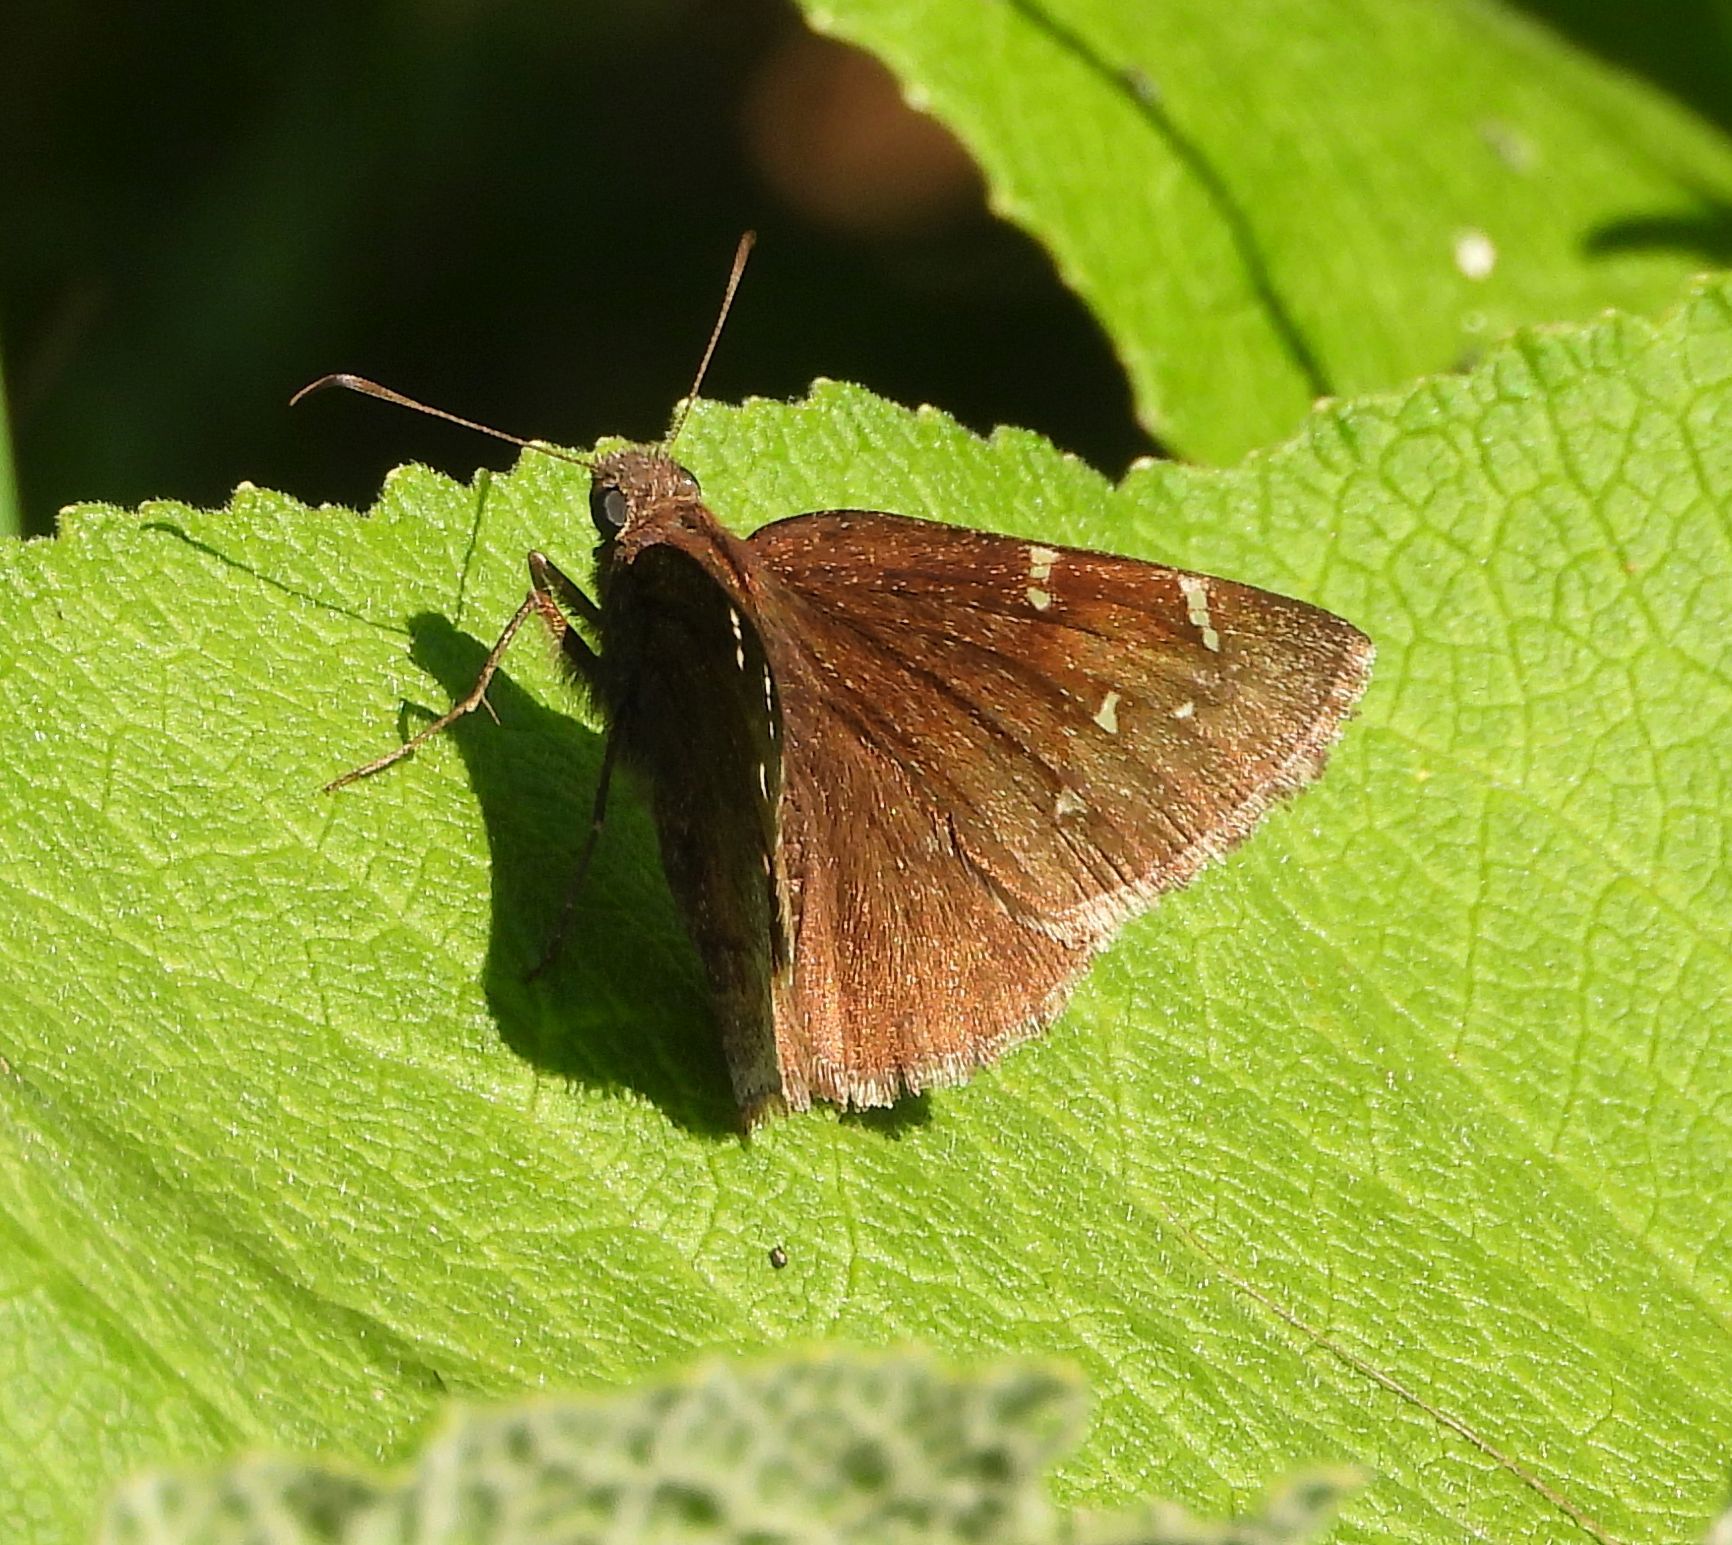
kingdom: Animalia
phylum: Arthropoda
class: Insecta
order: Lepidoptera
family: Hesperiidae
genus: Thorybes
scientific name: Thorybes pylades
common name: Northern cloudywing
